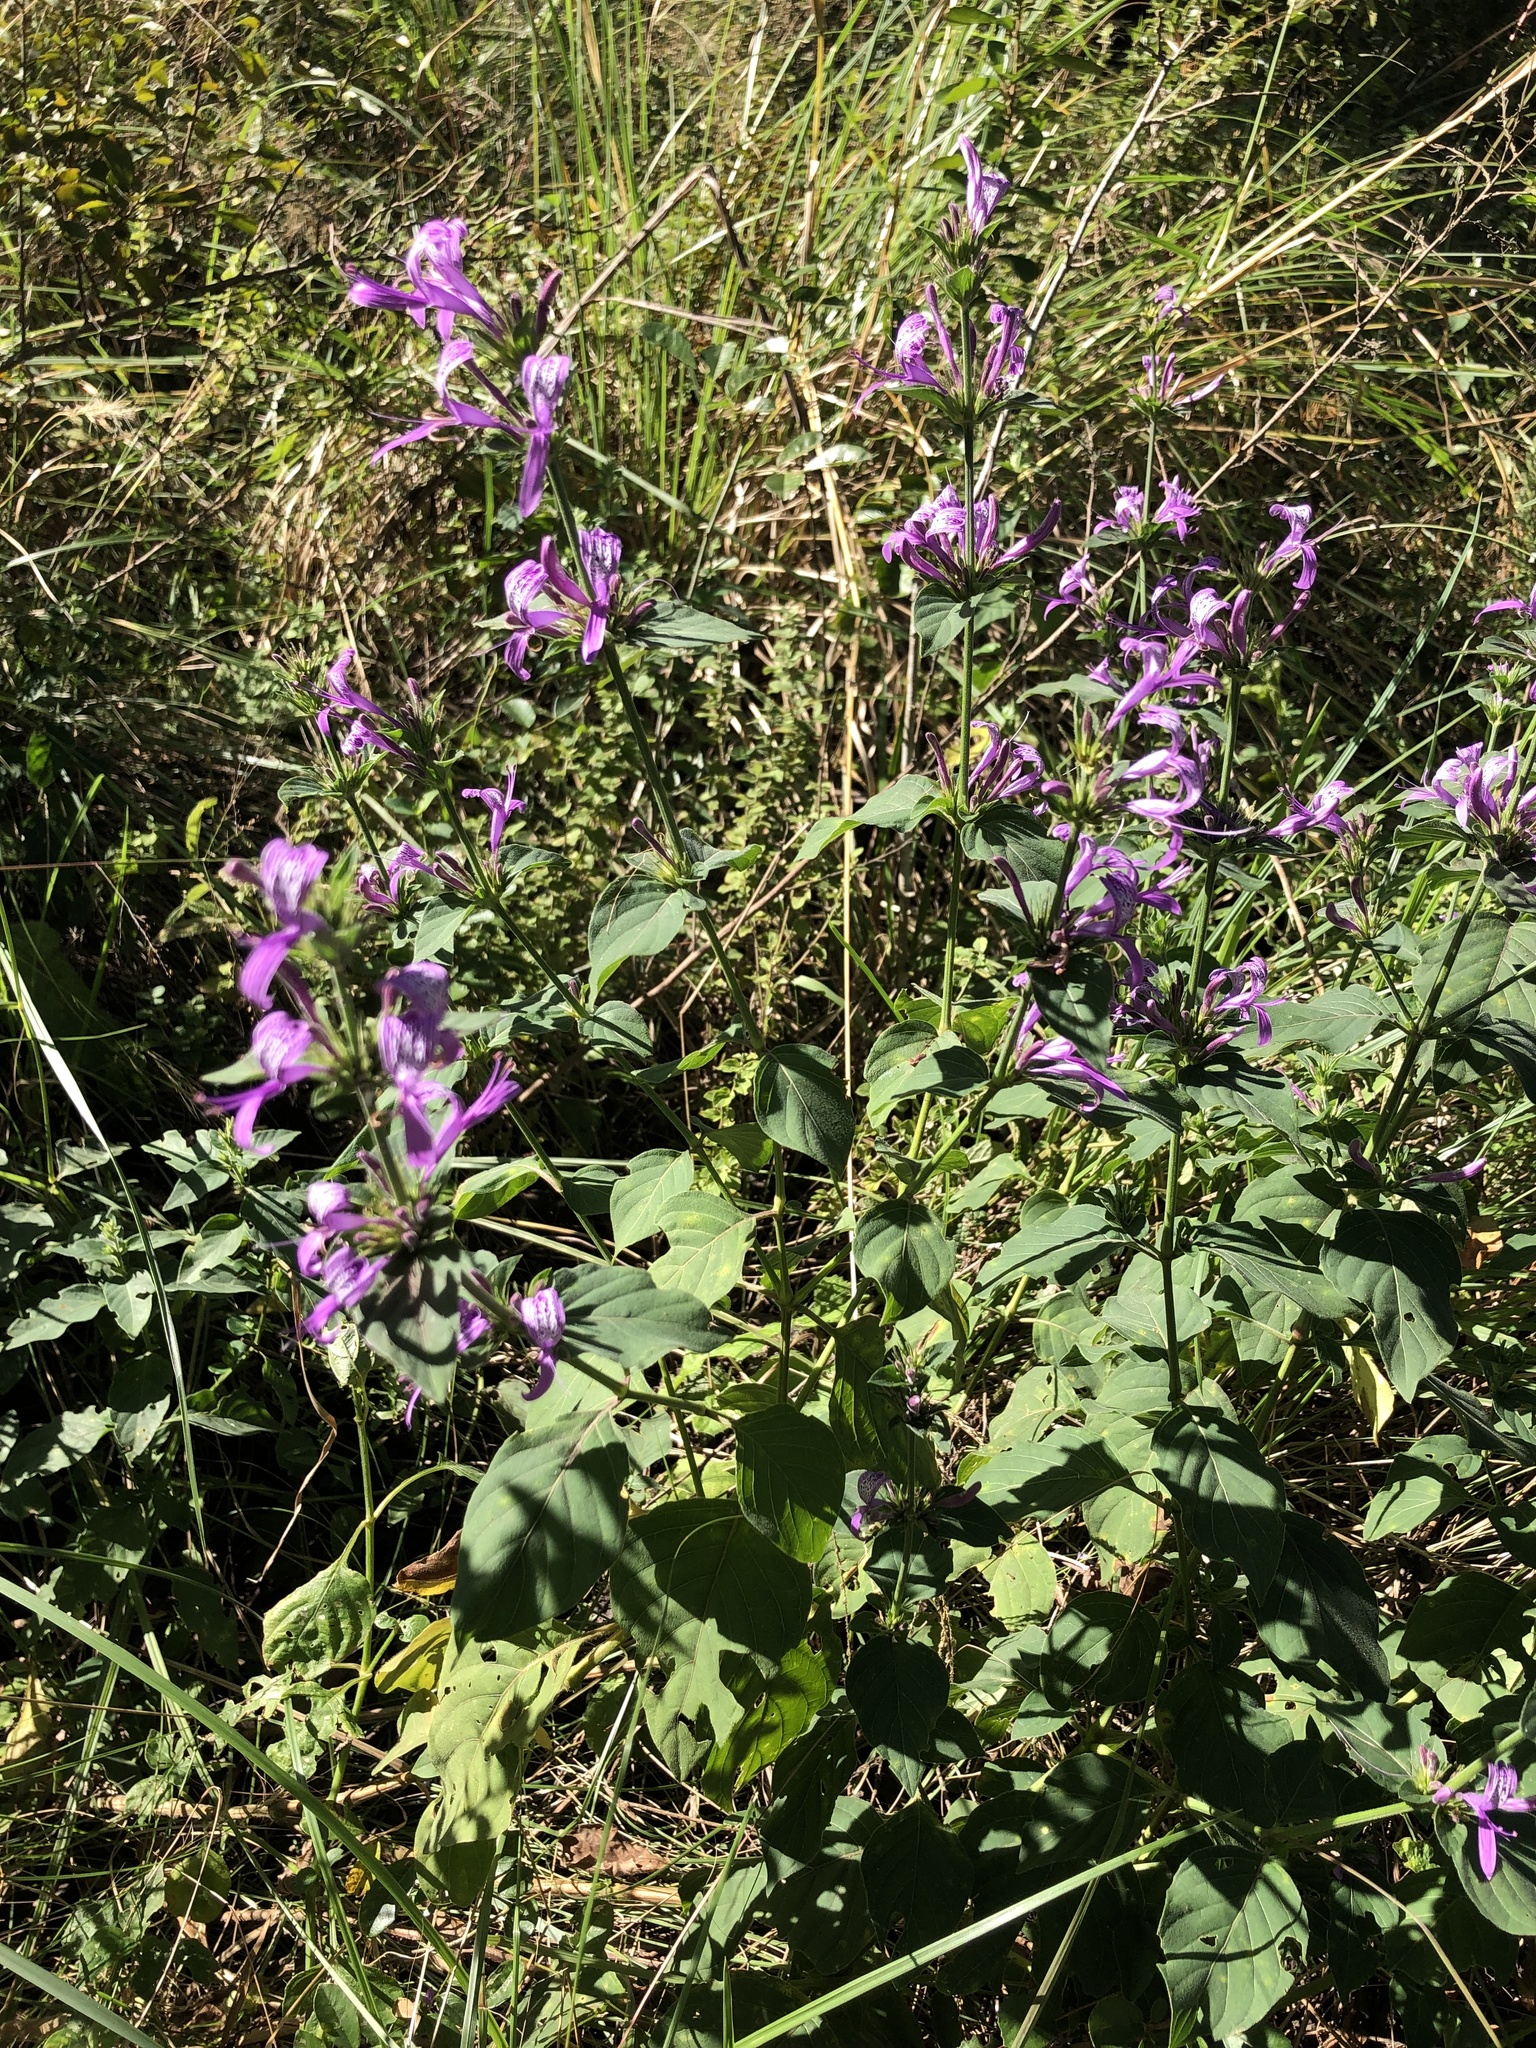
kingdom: Plantae
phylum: Tracheophyta
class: Magnoliopsida
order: Lamiales
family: Acanthaceae
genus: Hypoestes
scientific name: Hypoestes aristata
